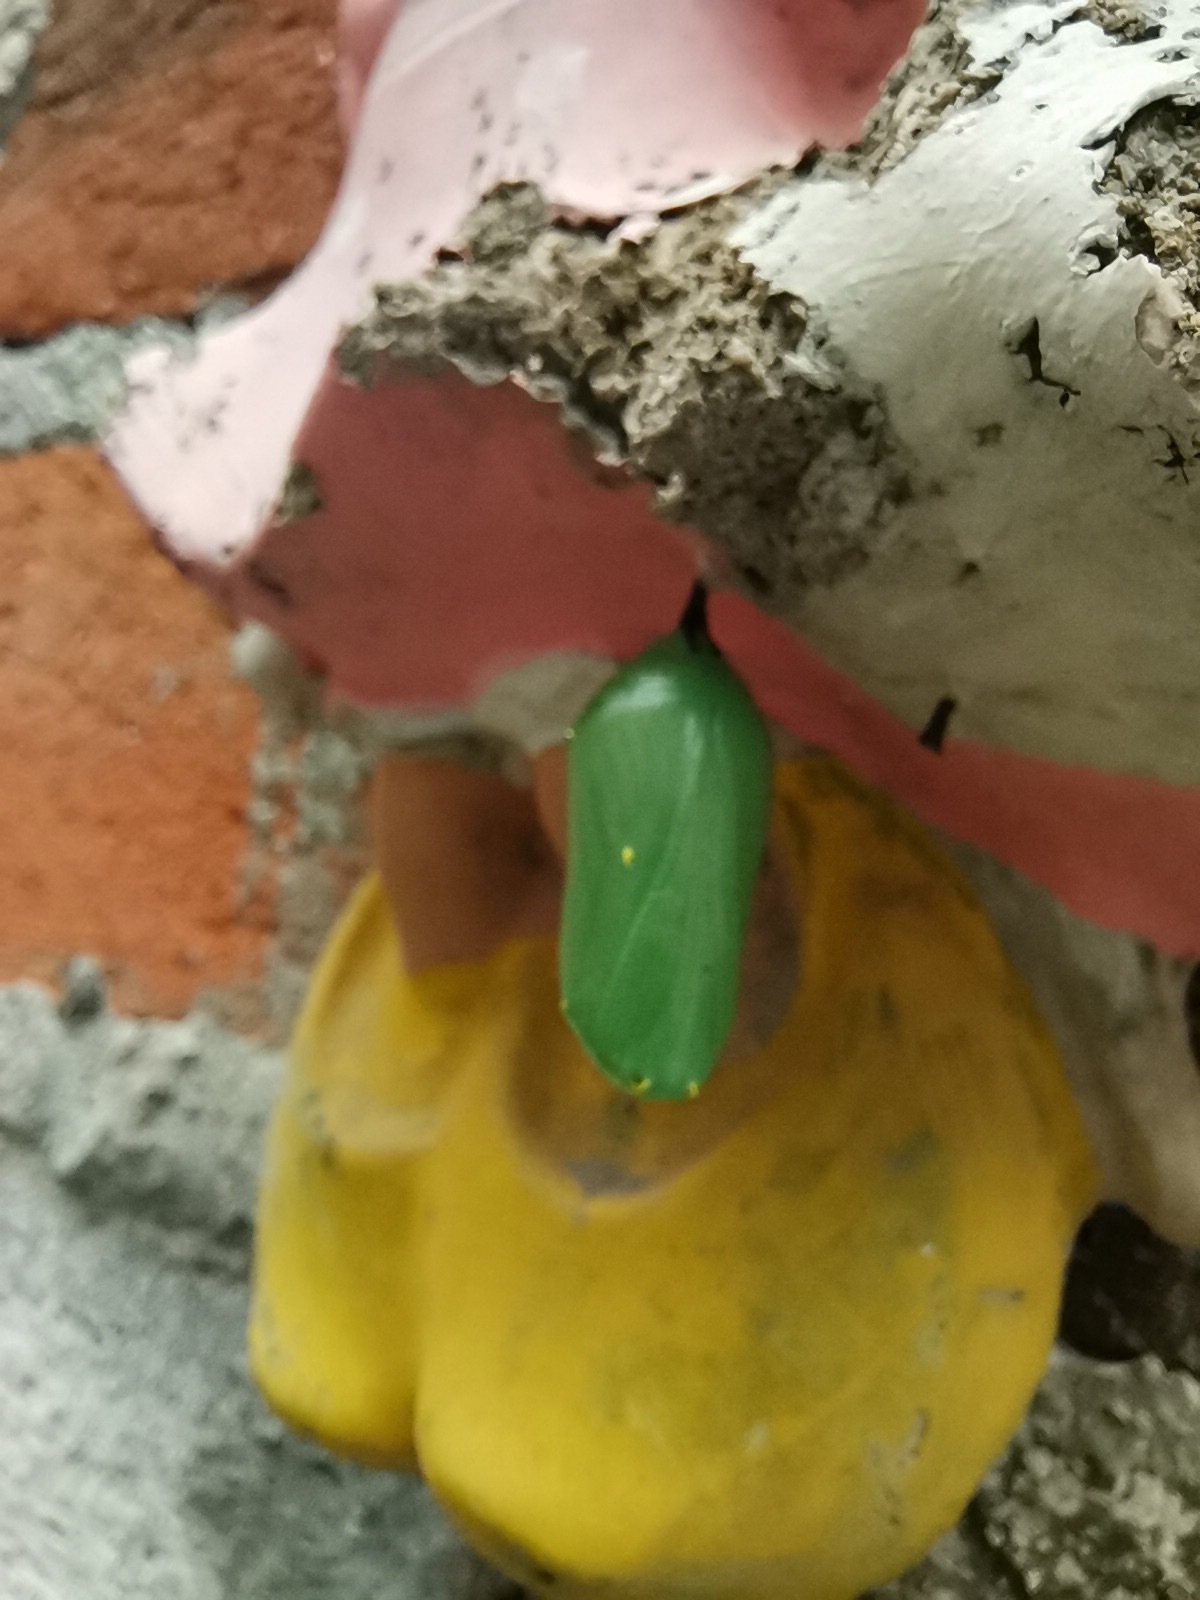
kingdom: Animalia
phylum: Arthropoda
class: Insecta
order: Lepidoptera
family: Nymphalidae
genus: Danaus
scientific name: Danaus plexippus
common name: Monarch
